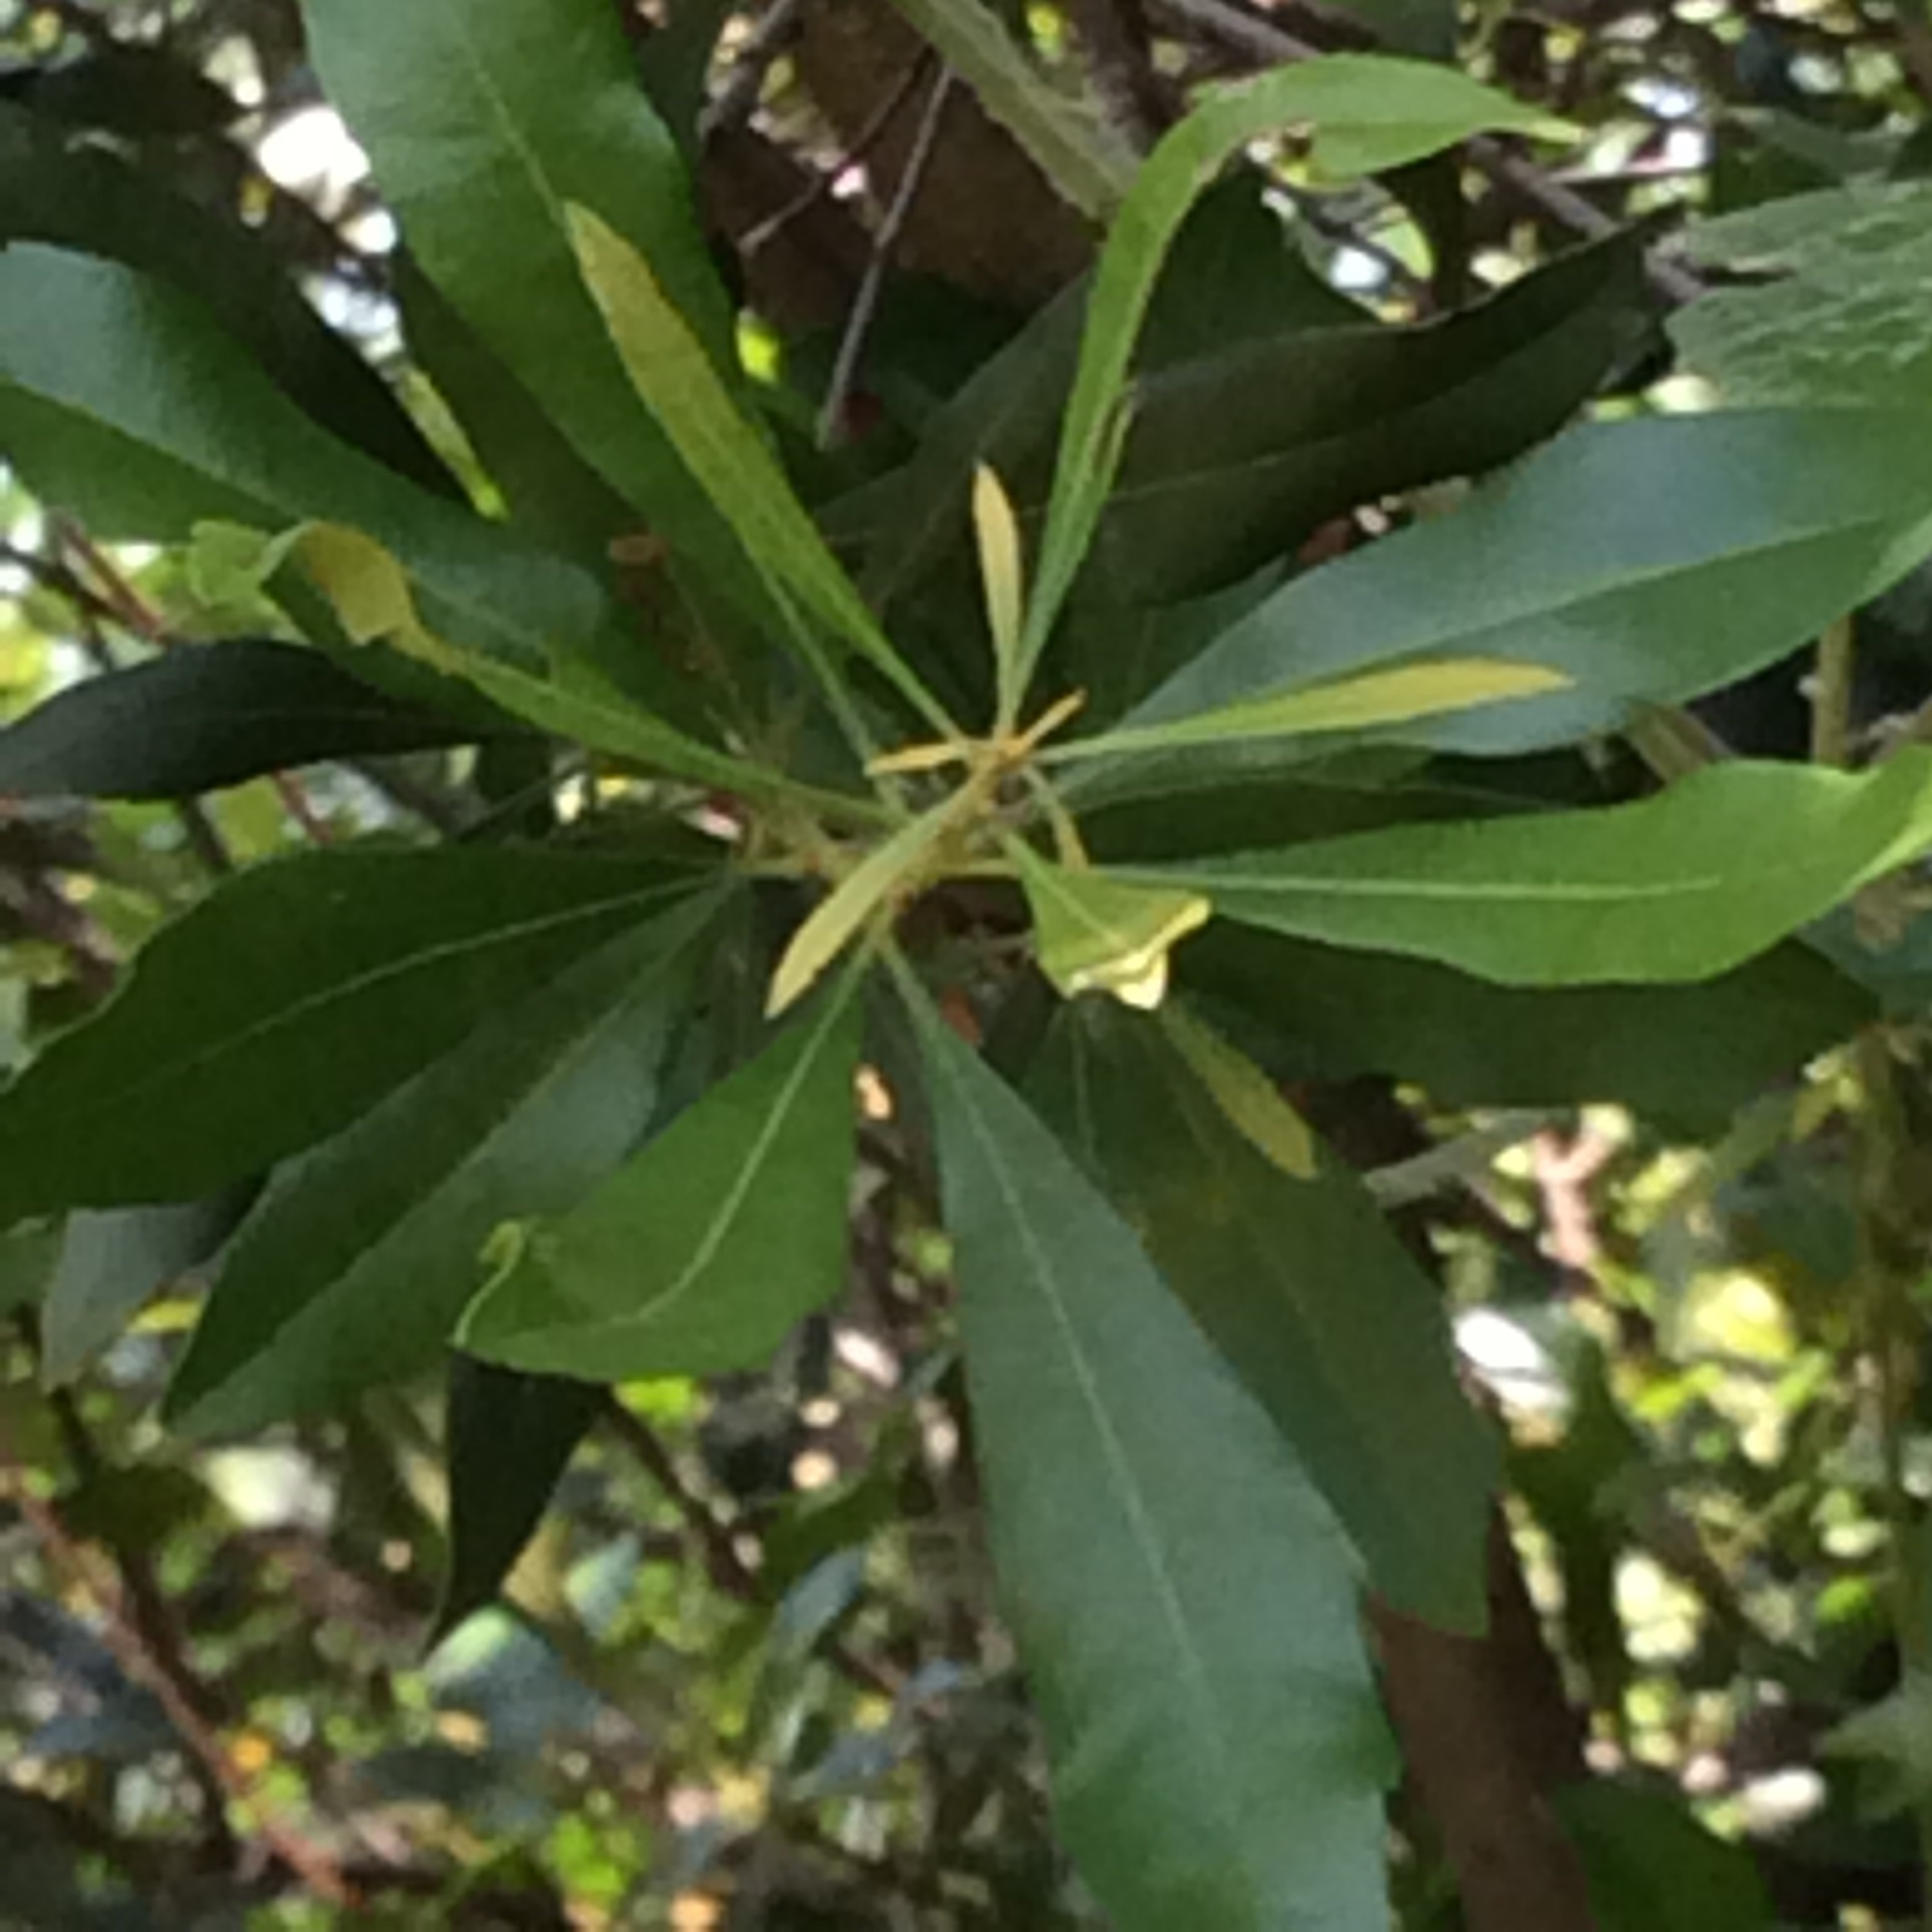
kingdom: Plantae
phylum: Tracheophyta
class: Magnoliopsida
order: Fagales
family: Myricaceae
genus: Morella
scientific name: Morella cerifera
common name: Wax myrtle
